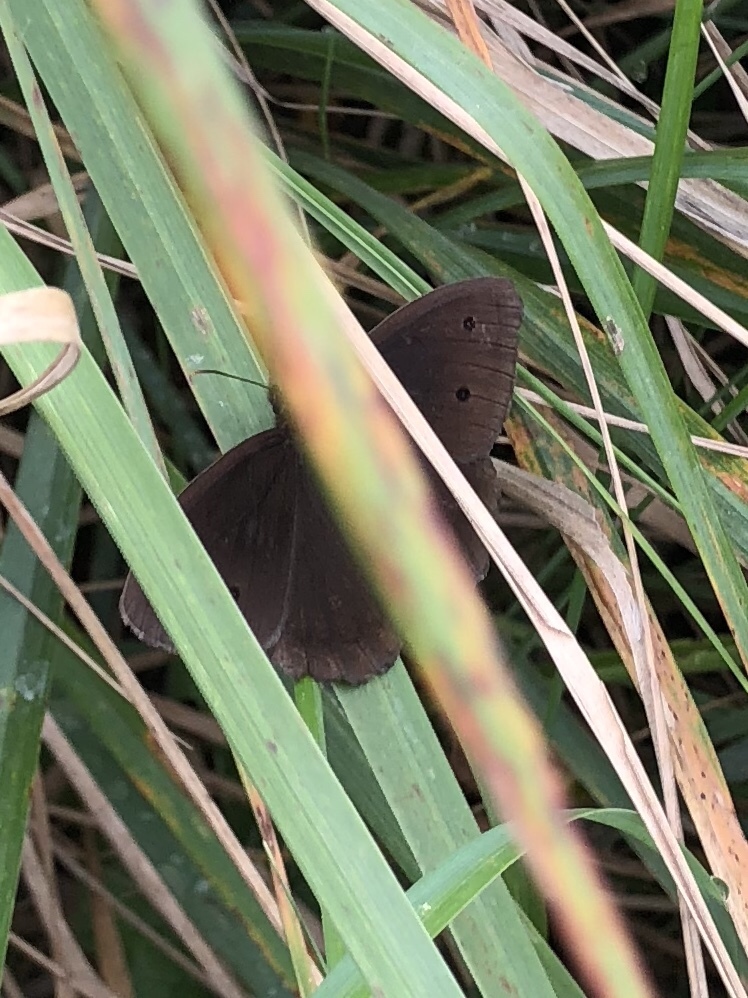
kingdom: Animalia
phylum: Arthropoda
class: Insecta
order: Lepidoptera
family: Nymphalidae
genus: Minois
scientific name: Minois dryas
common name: Dryad
